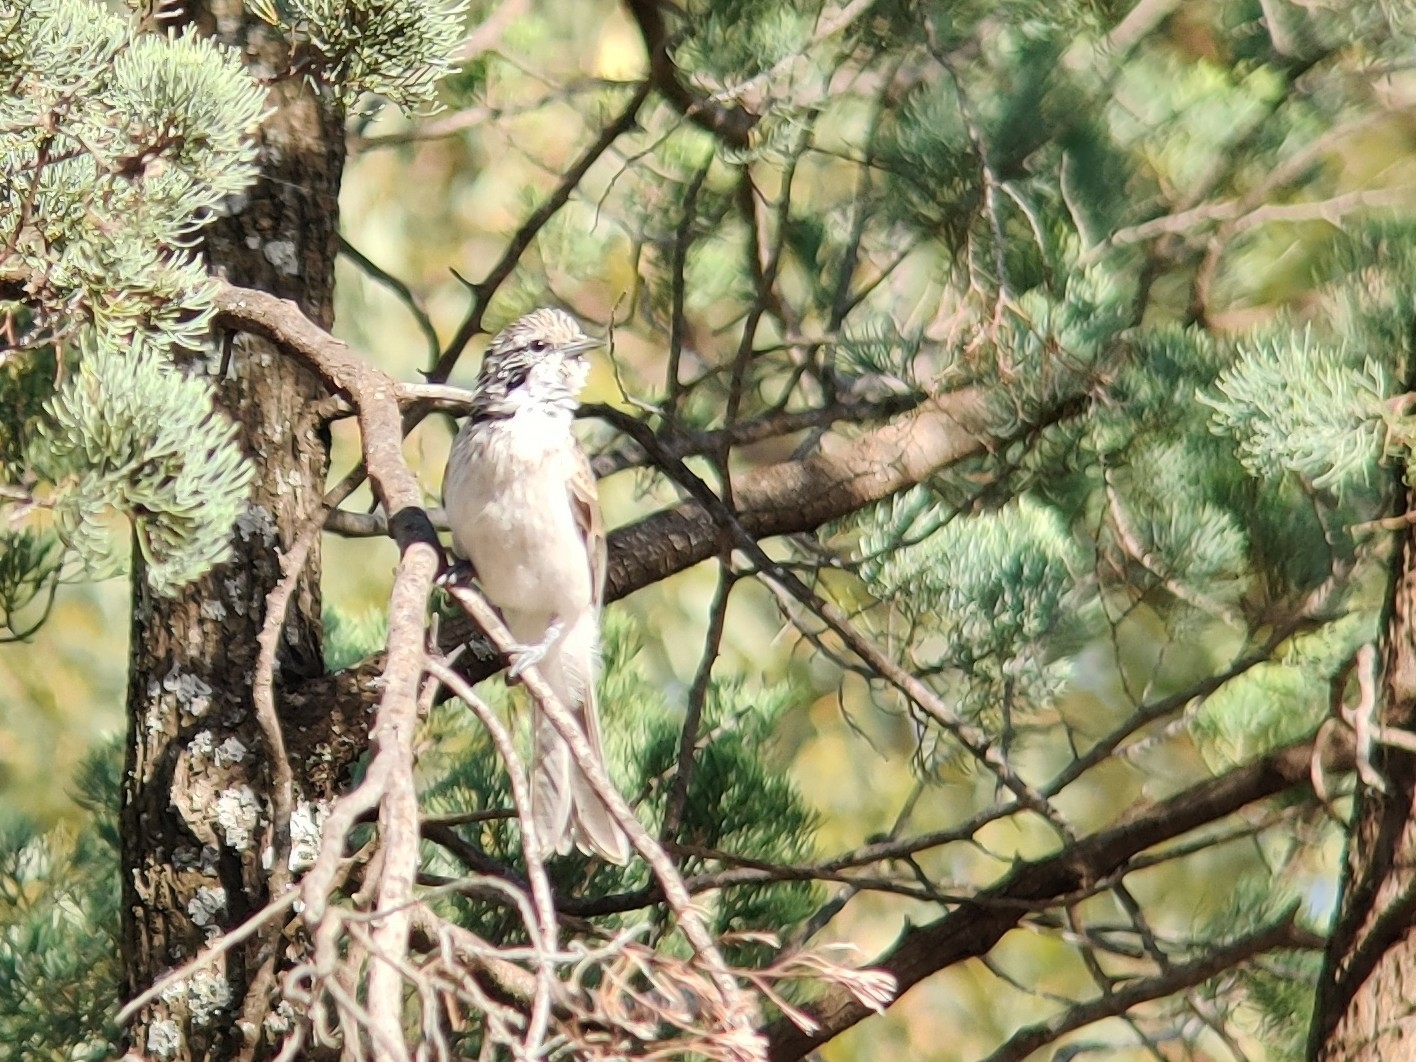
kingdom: Animalia
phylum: Chordata
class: Aves
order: Passeriformes
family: Meliphagidae
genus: Plectorhyncha
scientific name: Plectorhyncha lanceolata
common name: Striped honeyeater
